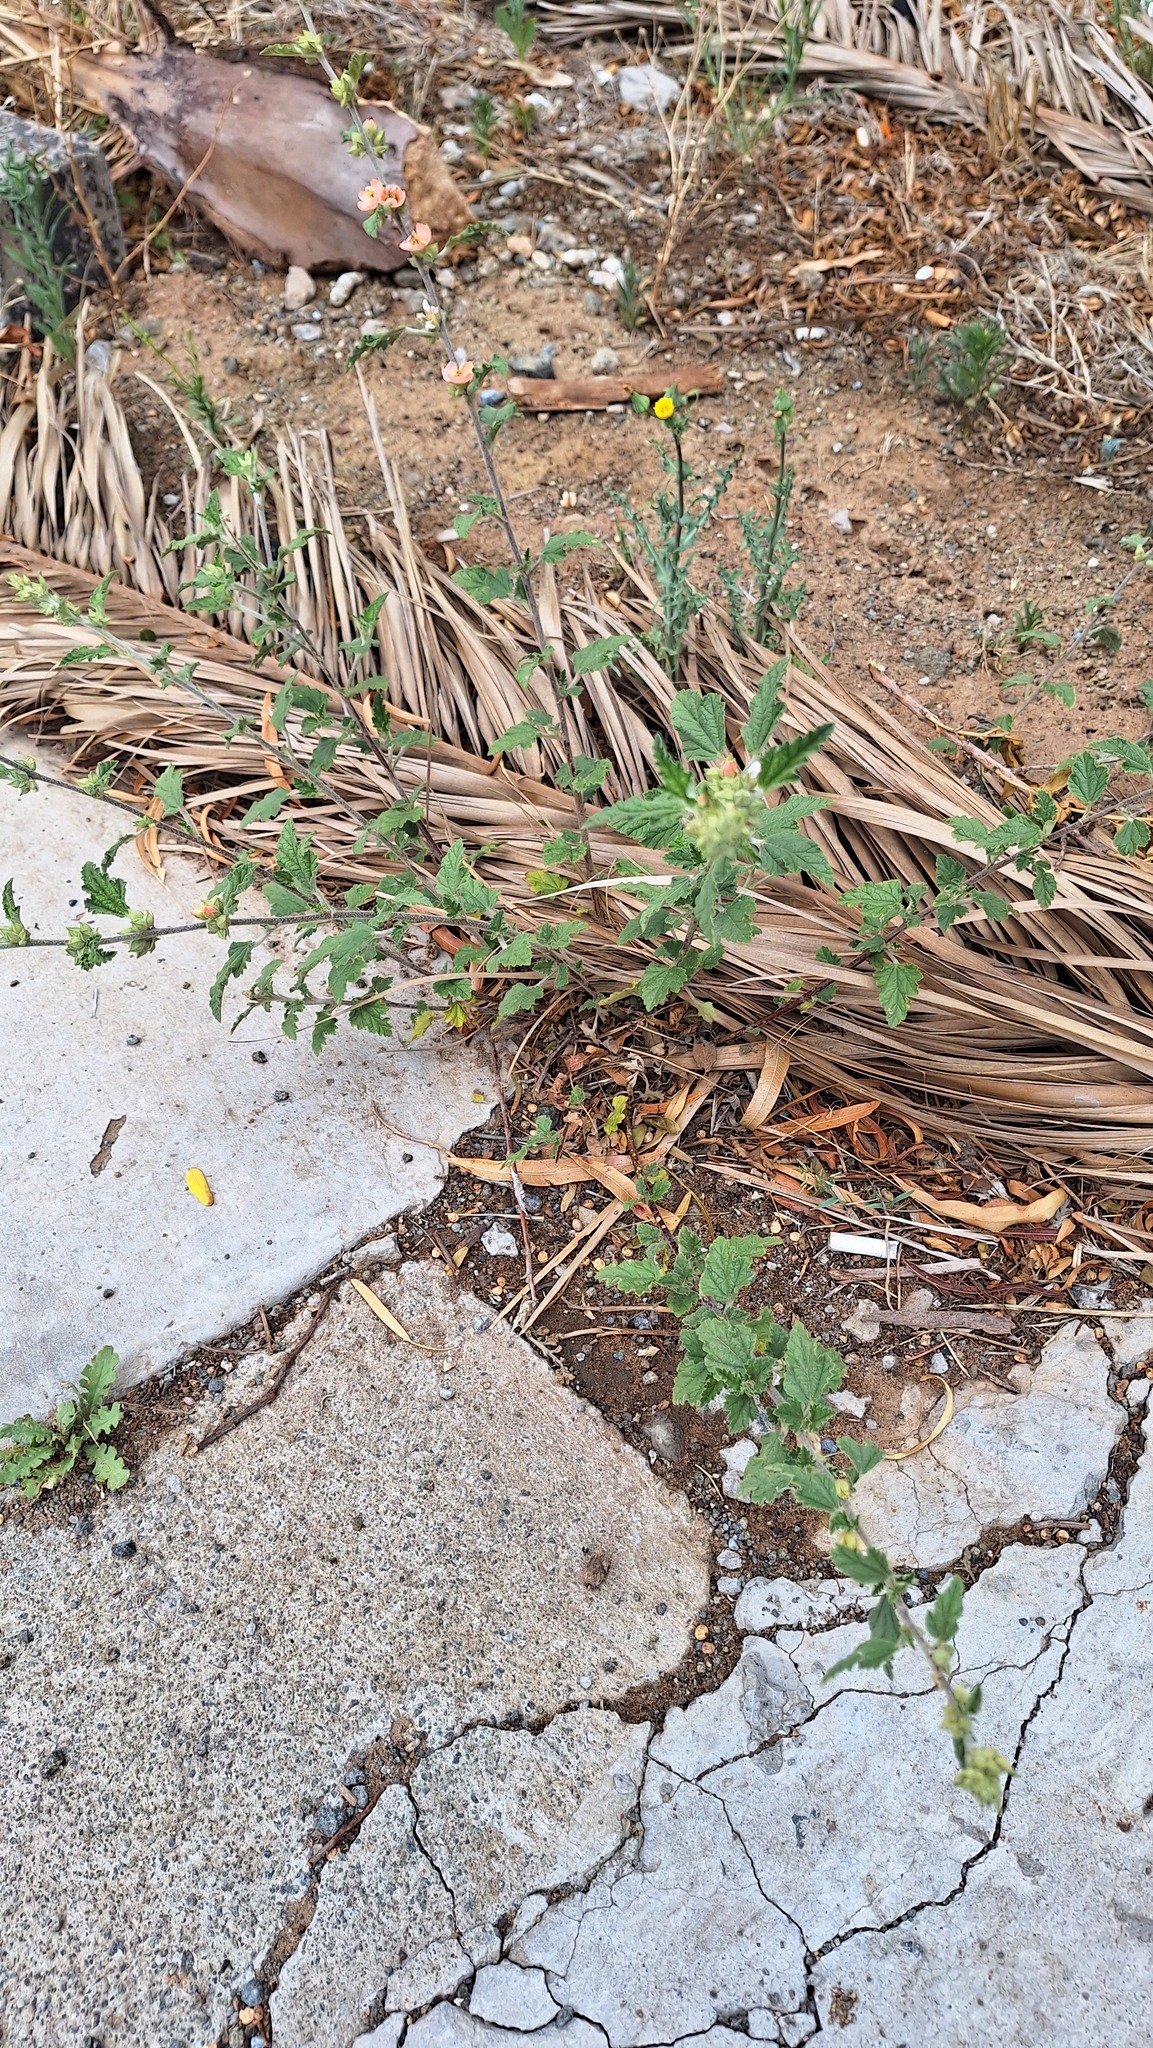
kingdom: Plantae
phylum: Tracheophyta
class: Magnoliopsida
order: Malvales
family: Malvaceae
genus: Sphaeralcea
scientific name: Sphaeralcea bonariensis
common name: Latin globemallow
